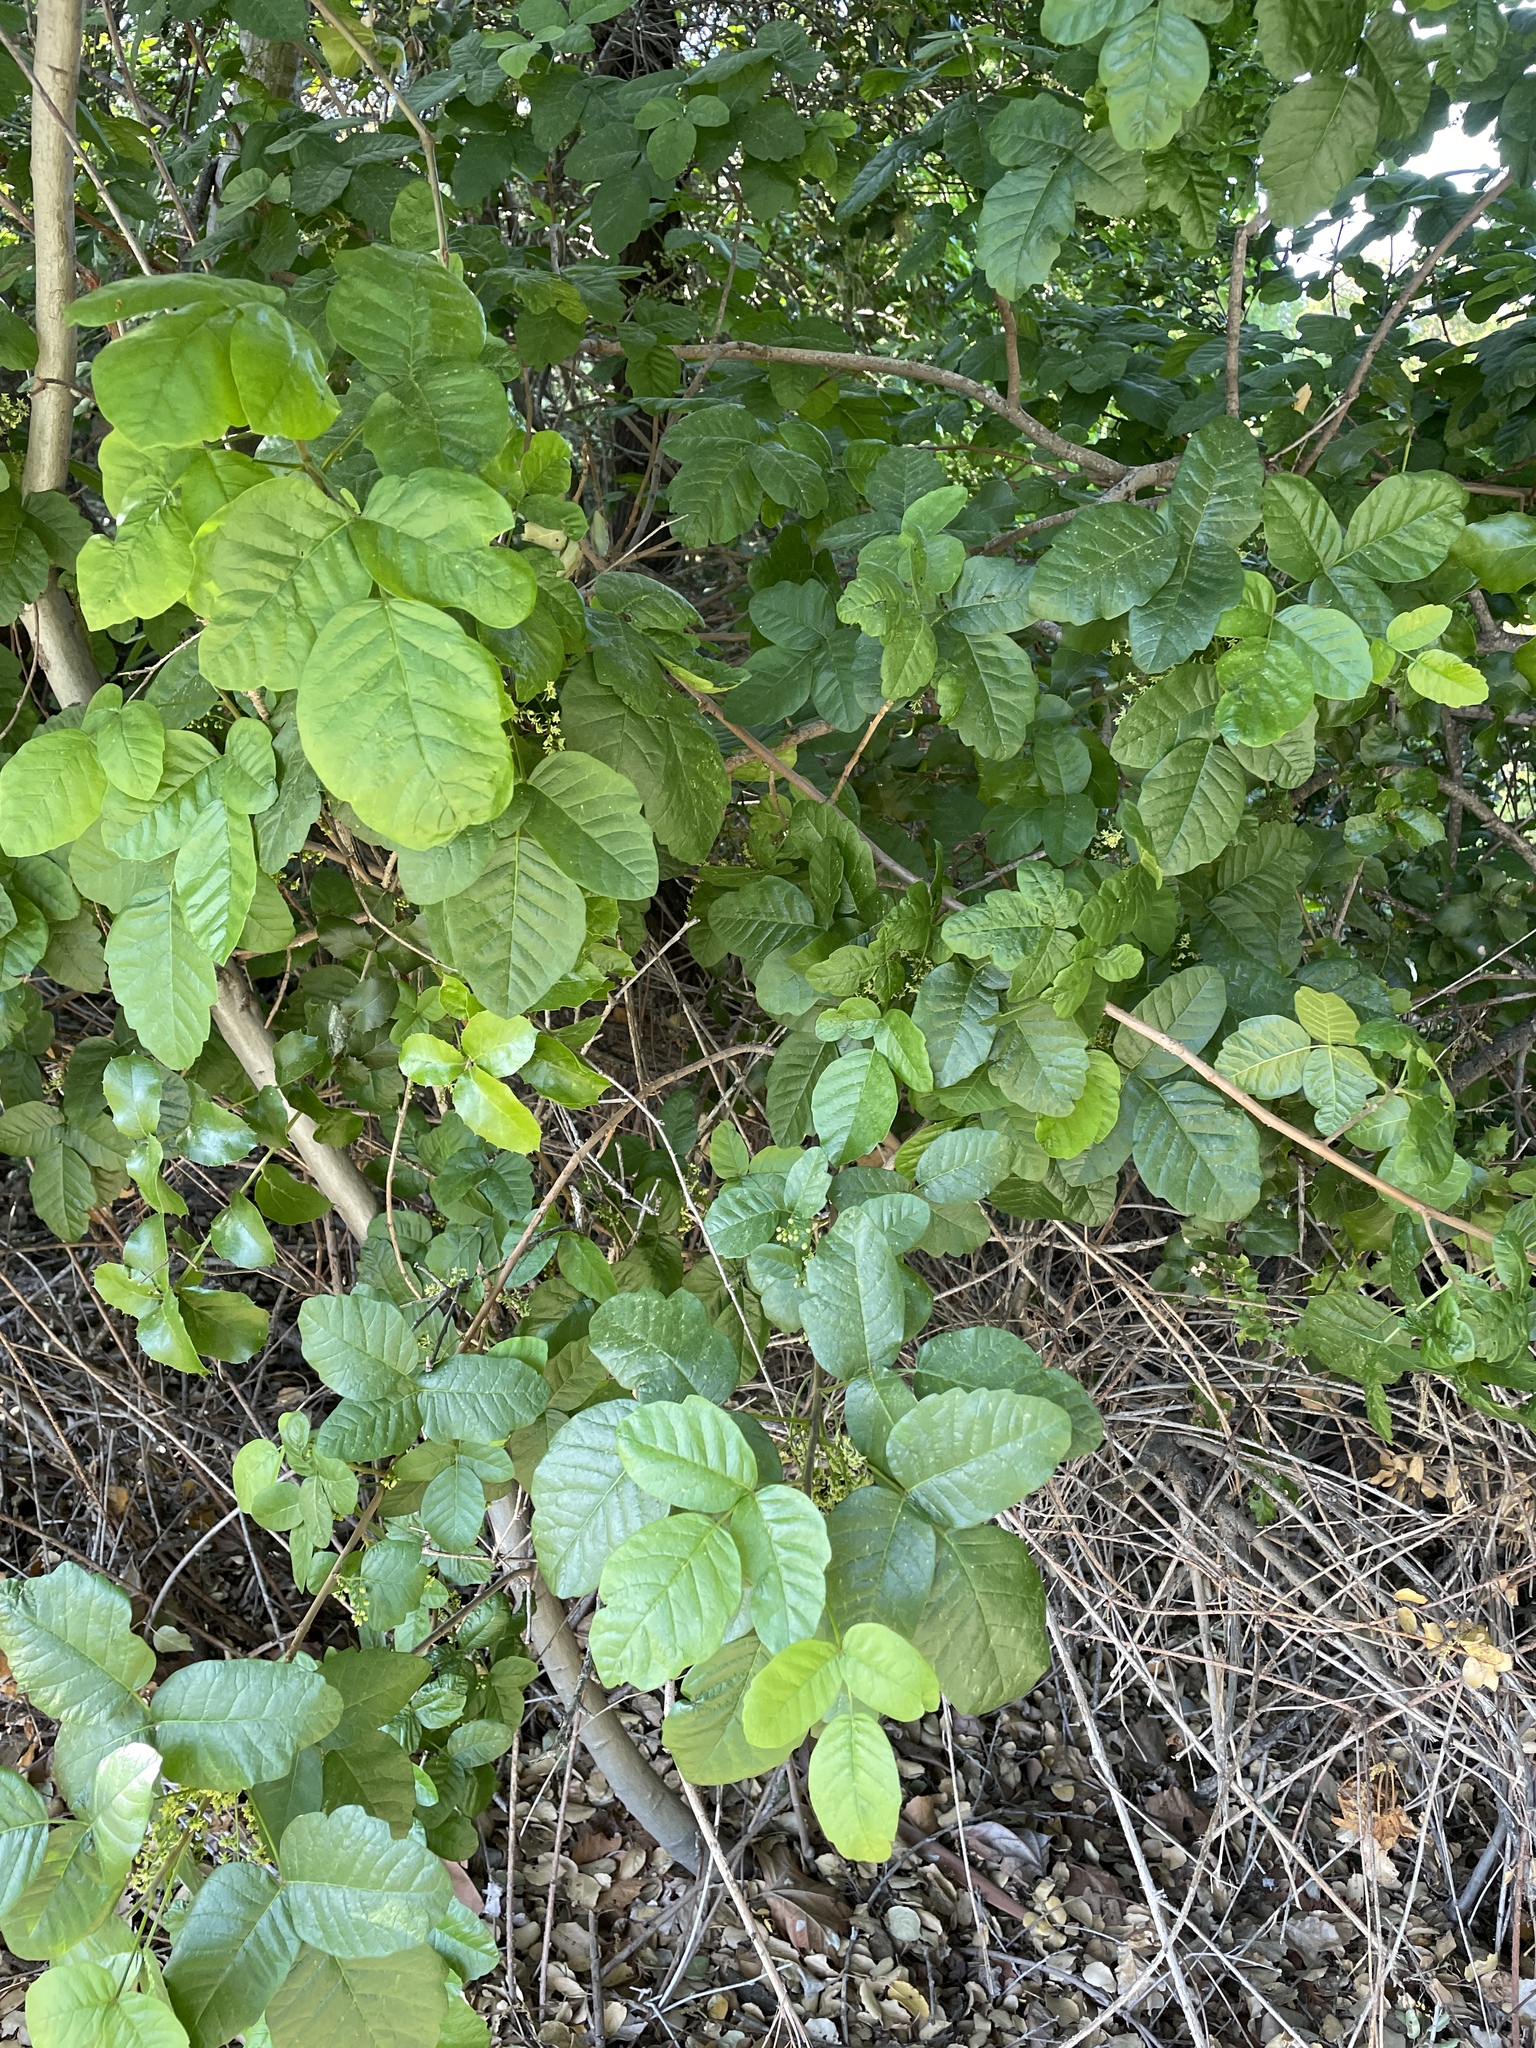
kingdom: Plantae
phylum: Tracheophyta
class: Magnoliopsida
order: Sapindales
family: Anacardiaceae
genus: Toxicodendron
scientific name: Toxicodendron diversilobum
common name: Pacific poison-oak
